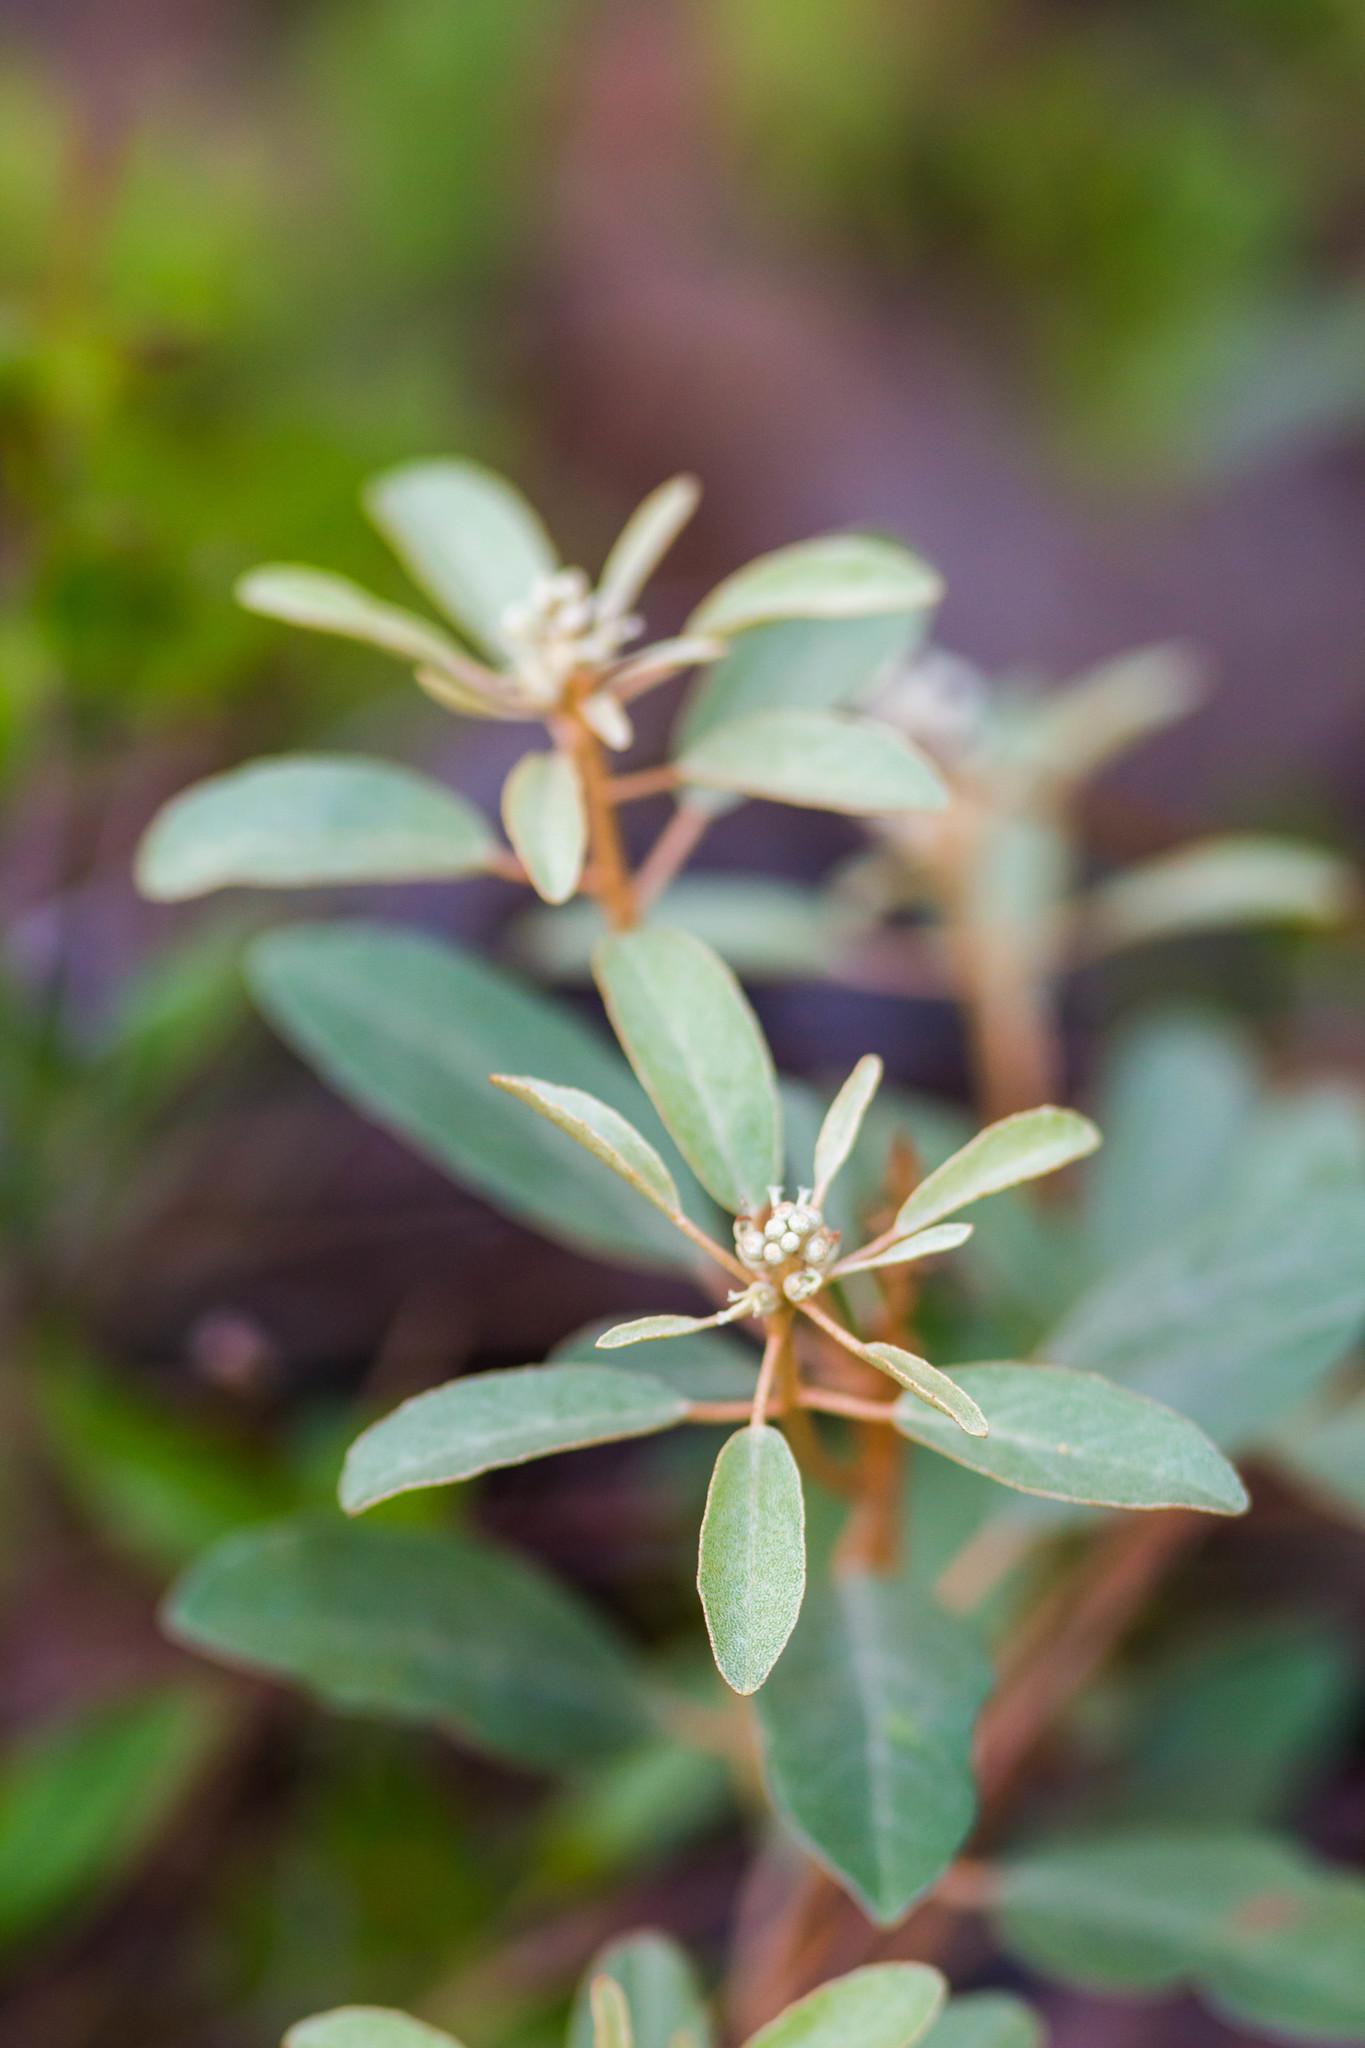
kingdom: Plantae
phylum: Tracheophyta
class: Magnoliopsida
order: Malpighiales
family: Euphorbiaceae
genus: Croton
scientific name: Croton argyranthemus
